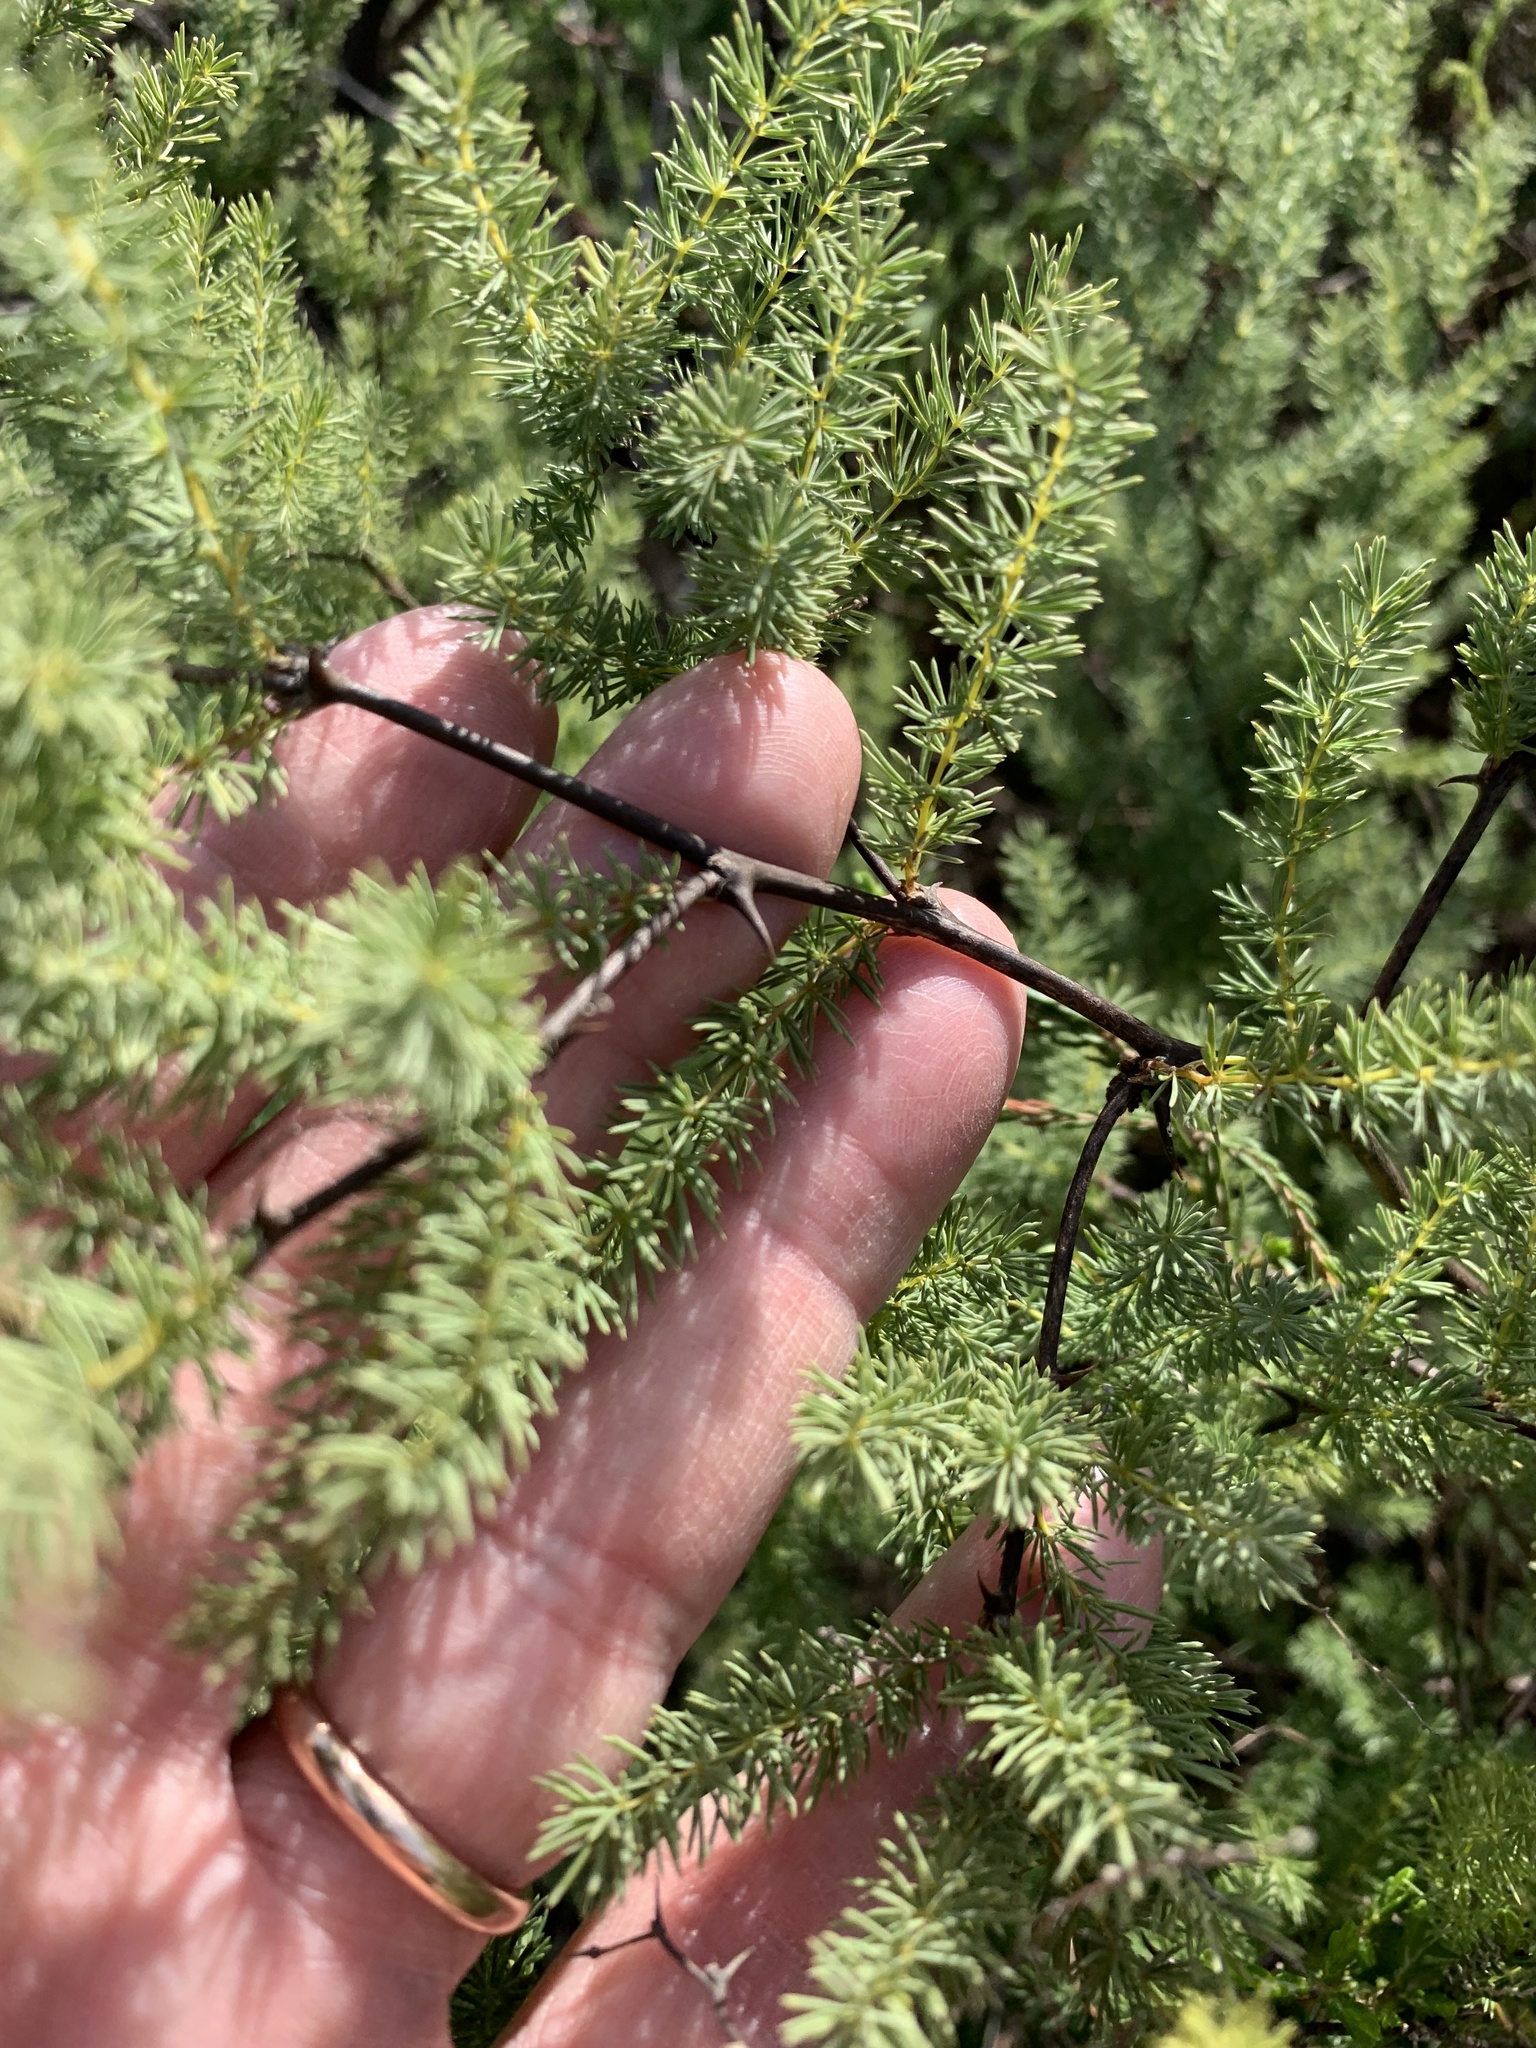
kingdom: Plantae
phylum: Tracheophyta
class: Liliopsida
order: Asparagales
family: Asparagaceae
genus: Asparagus
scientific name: Asparagus rubicundus
